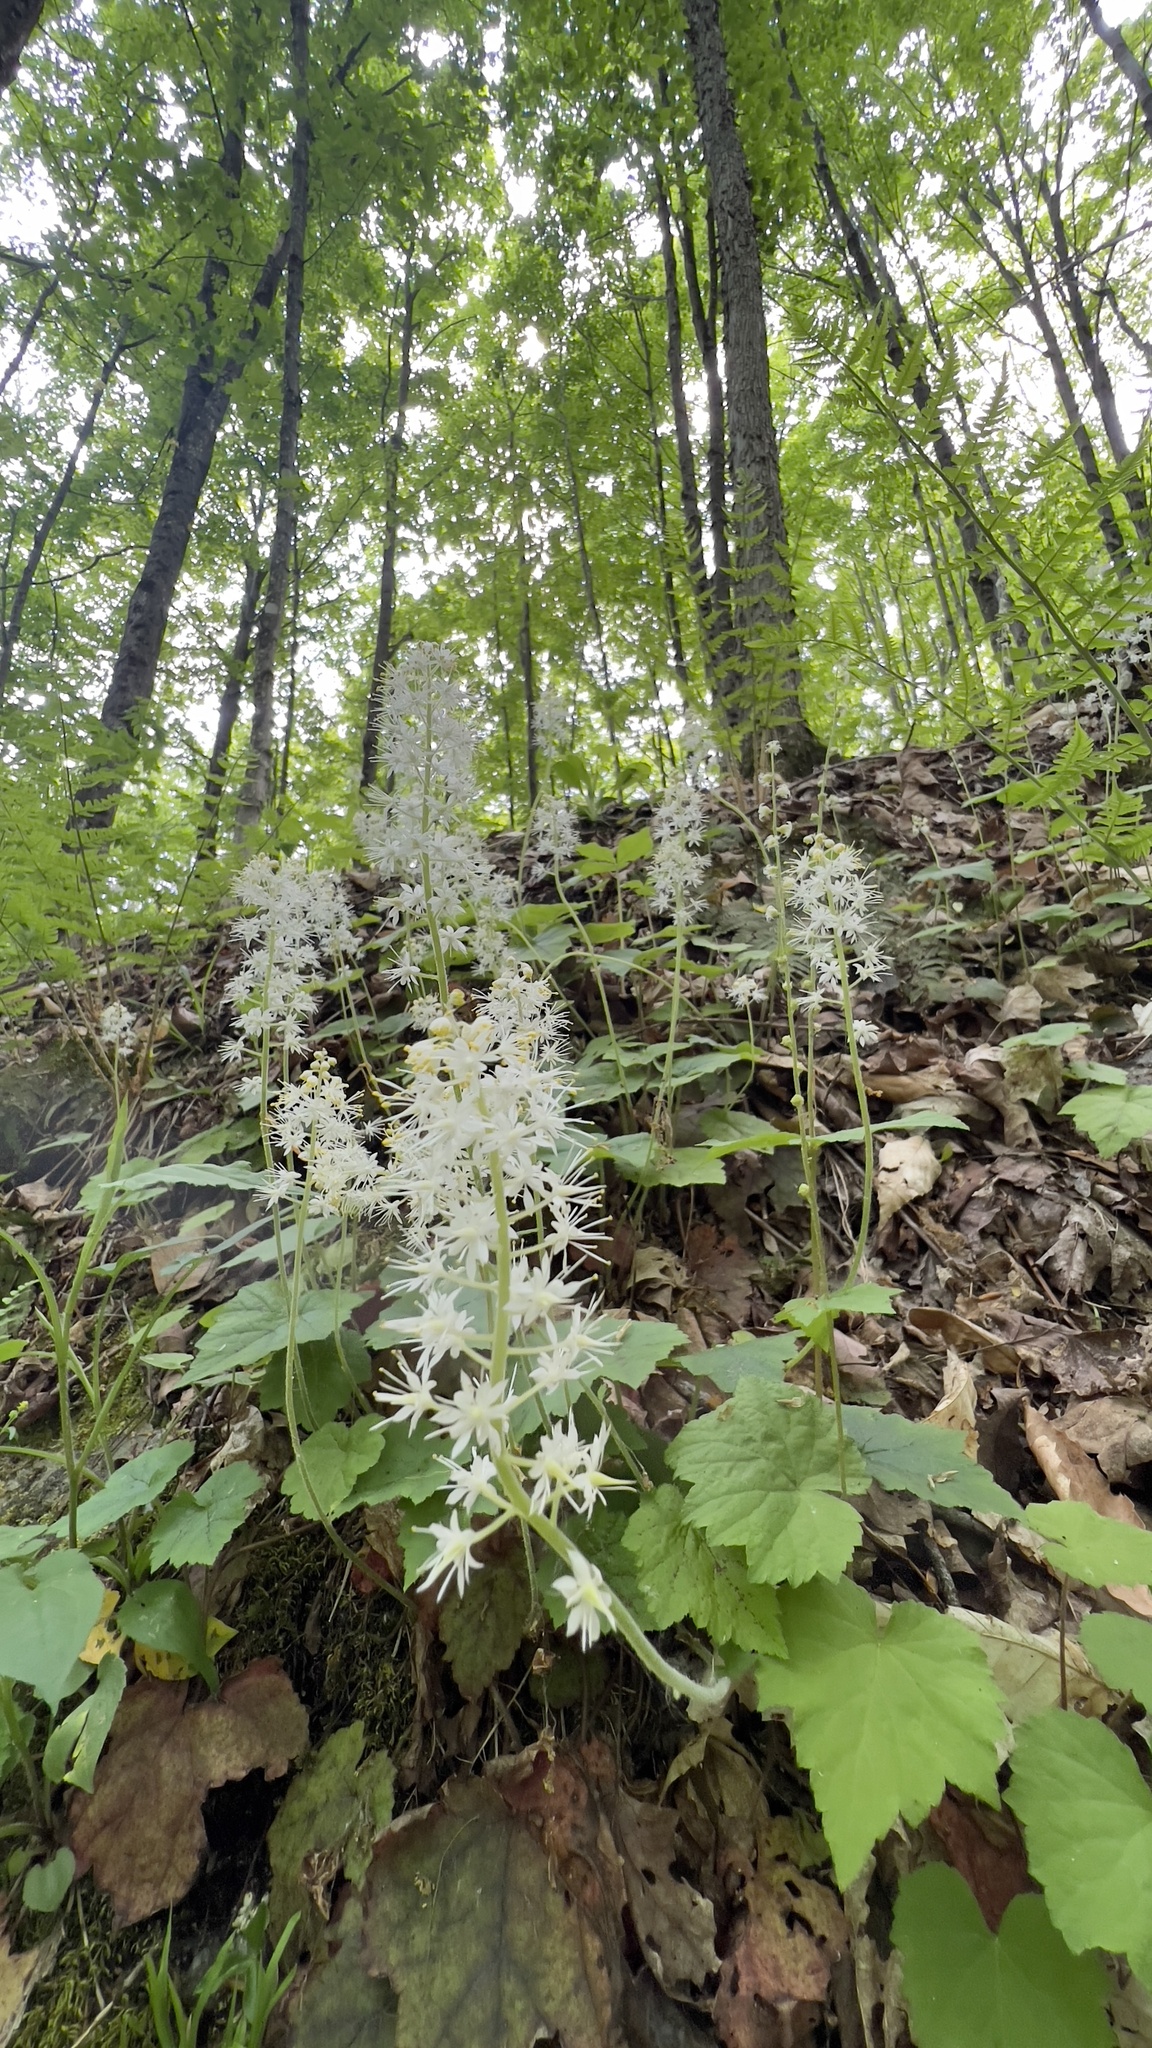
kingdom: Plantae
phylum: Tracheophyta
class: Magnoliopsida
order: Saxifragales
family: Saxifragaceae
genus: Tiarella
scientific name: Tiarella stolonifera
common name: Stoloniferous foamflower
